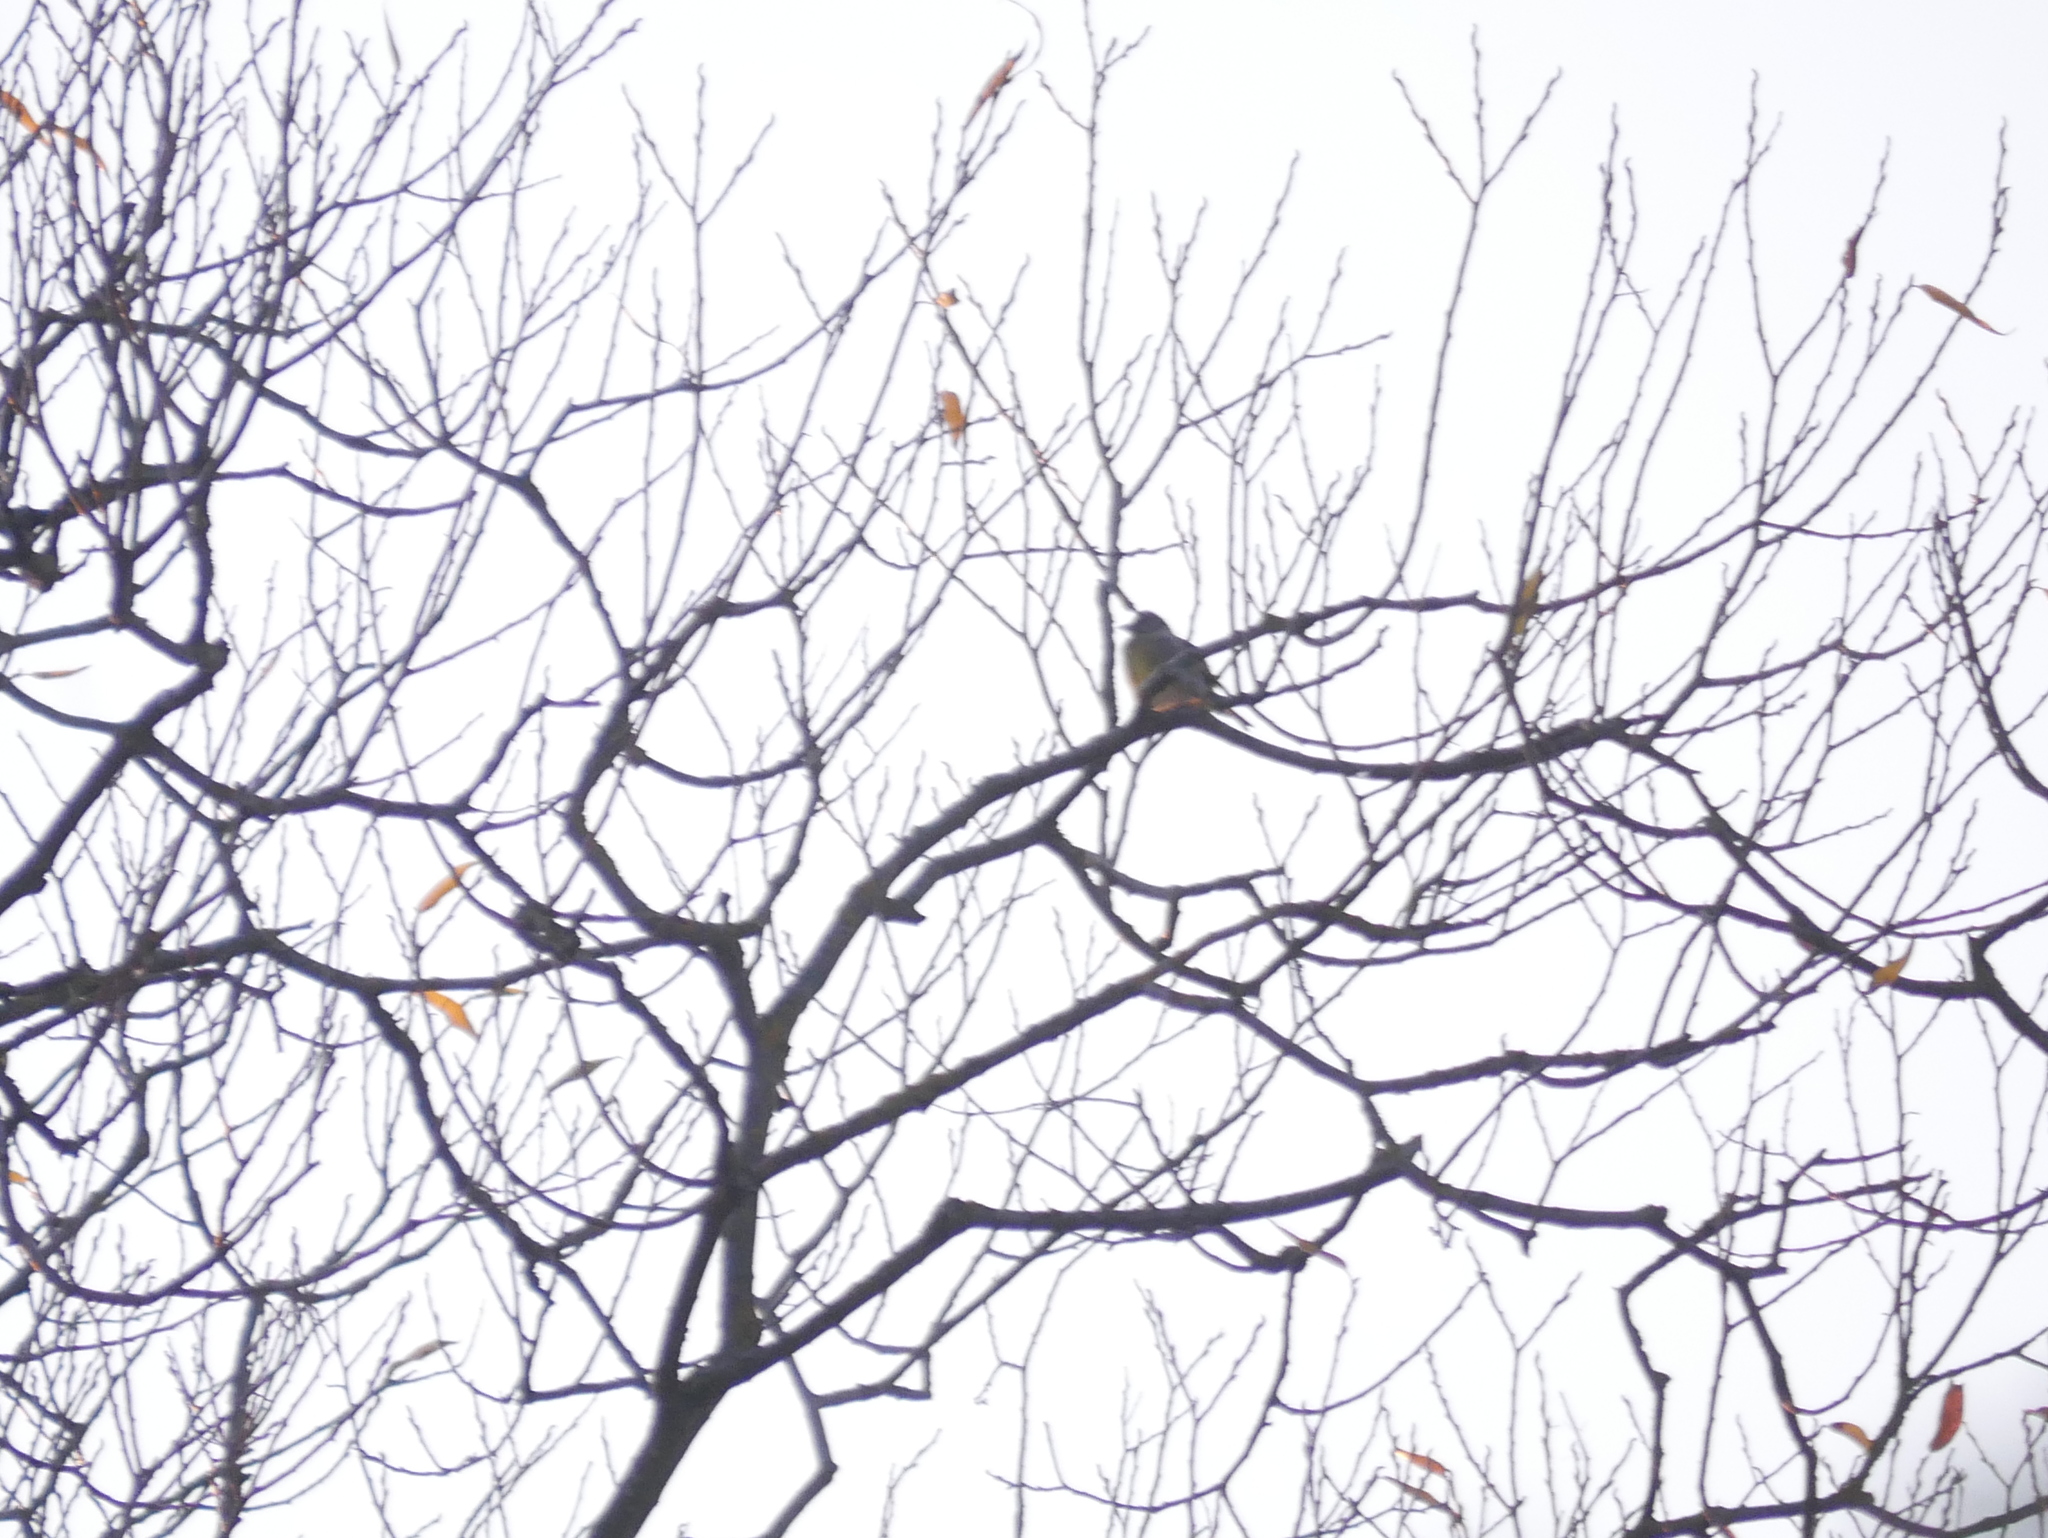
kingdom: Plantae
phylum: Tracheophyta
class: Liliopsida
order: Poales
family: Poaceae
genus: Chloris
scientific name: Chloris chloris
